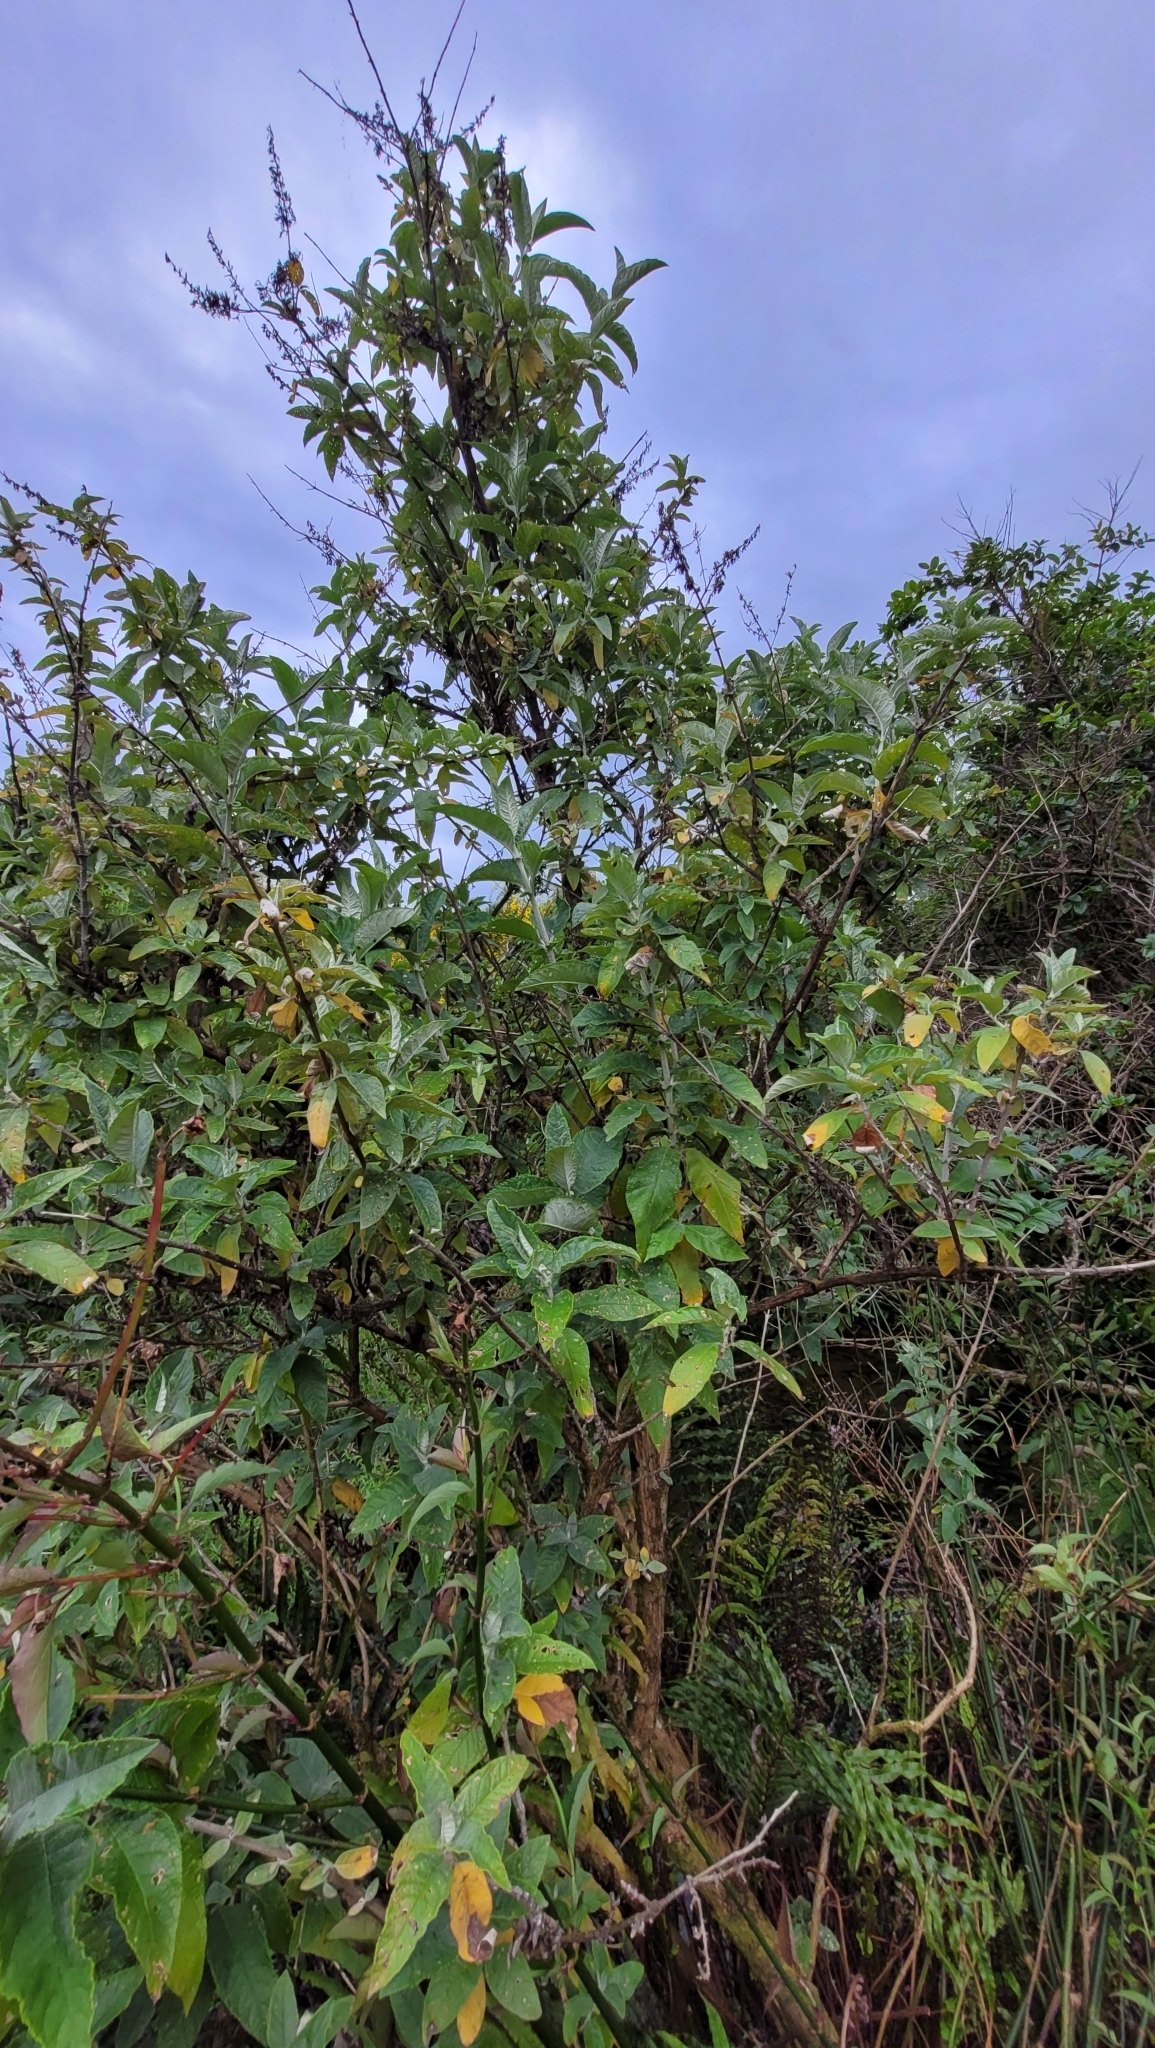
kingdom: Plantae
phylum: Tracheophyta
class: Magnoliopsida
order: Lamiales
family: Scrophulariaceae
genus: Buddleja
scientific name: Buddleja davidii
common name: Butterfly-bush
